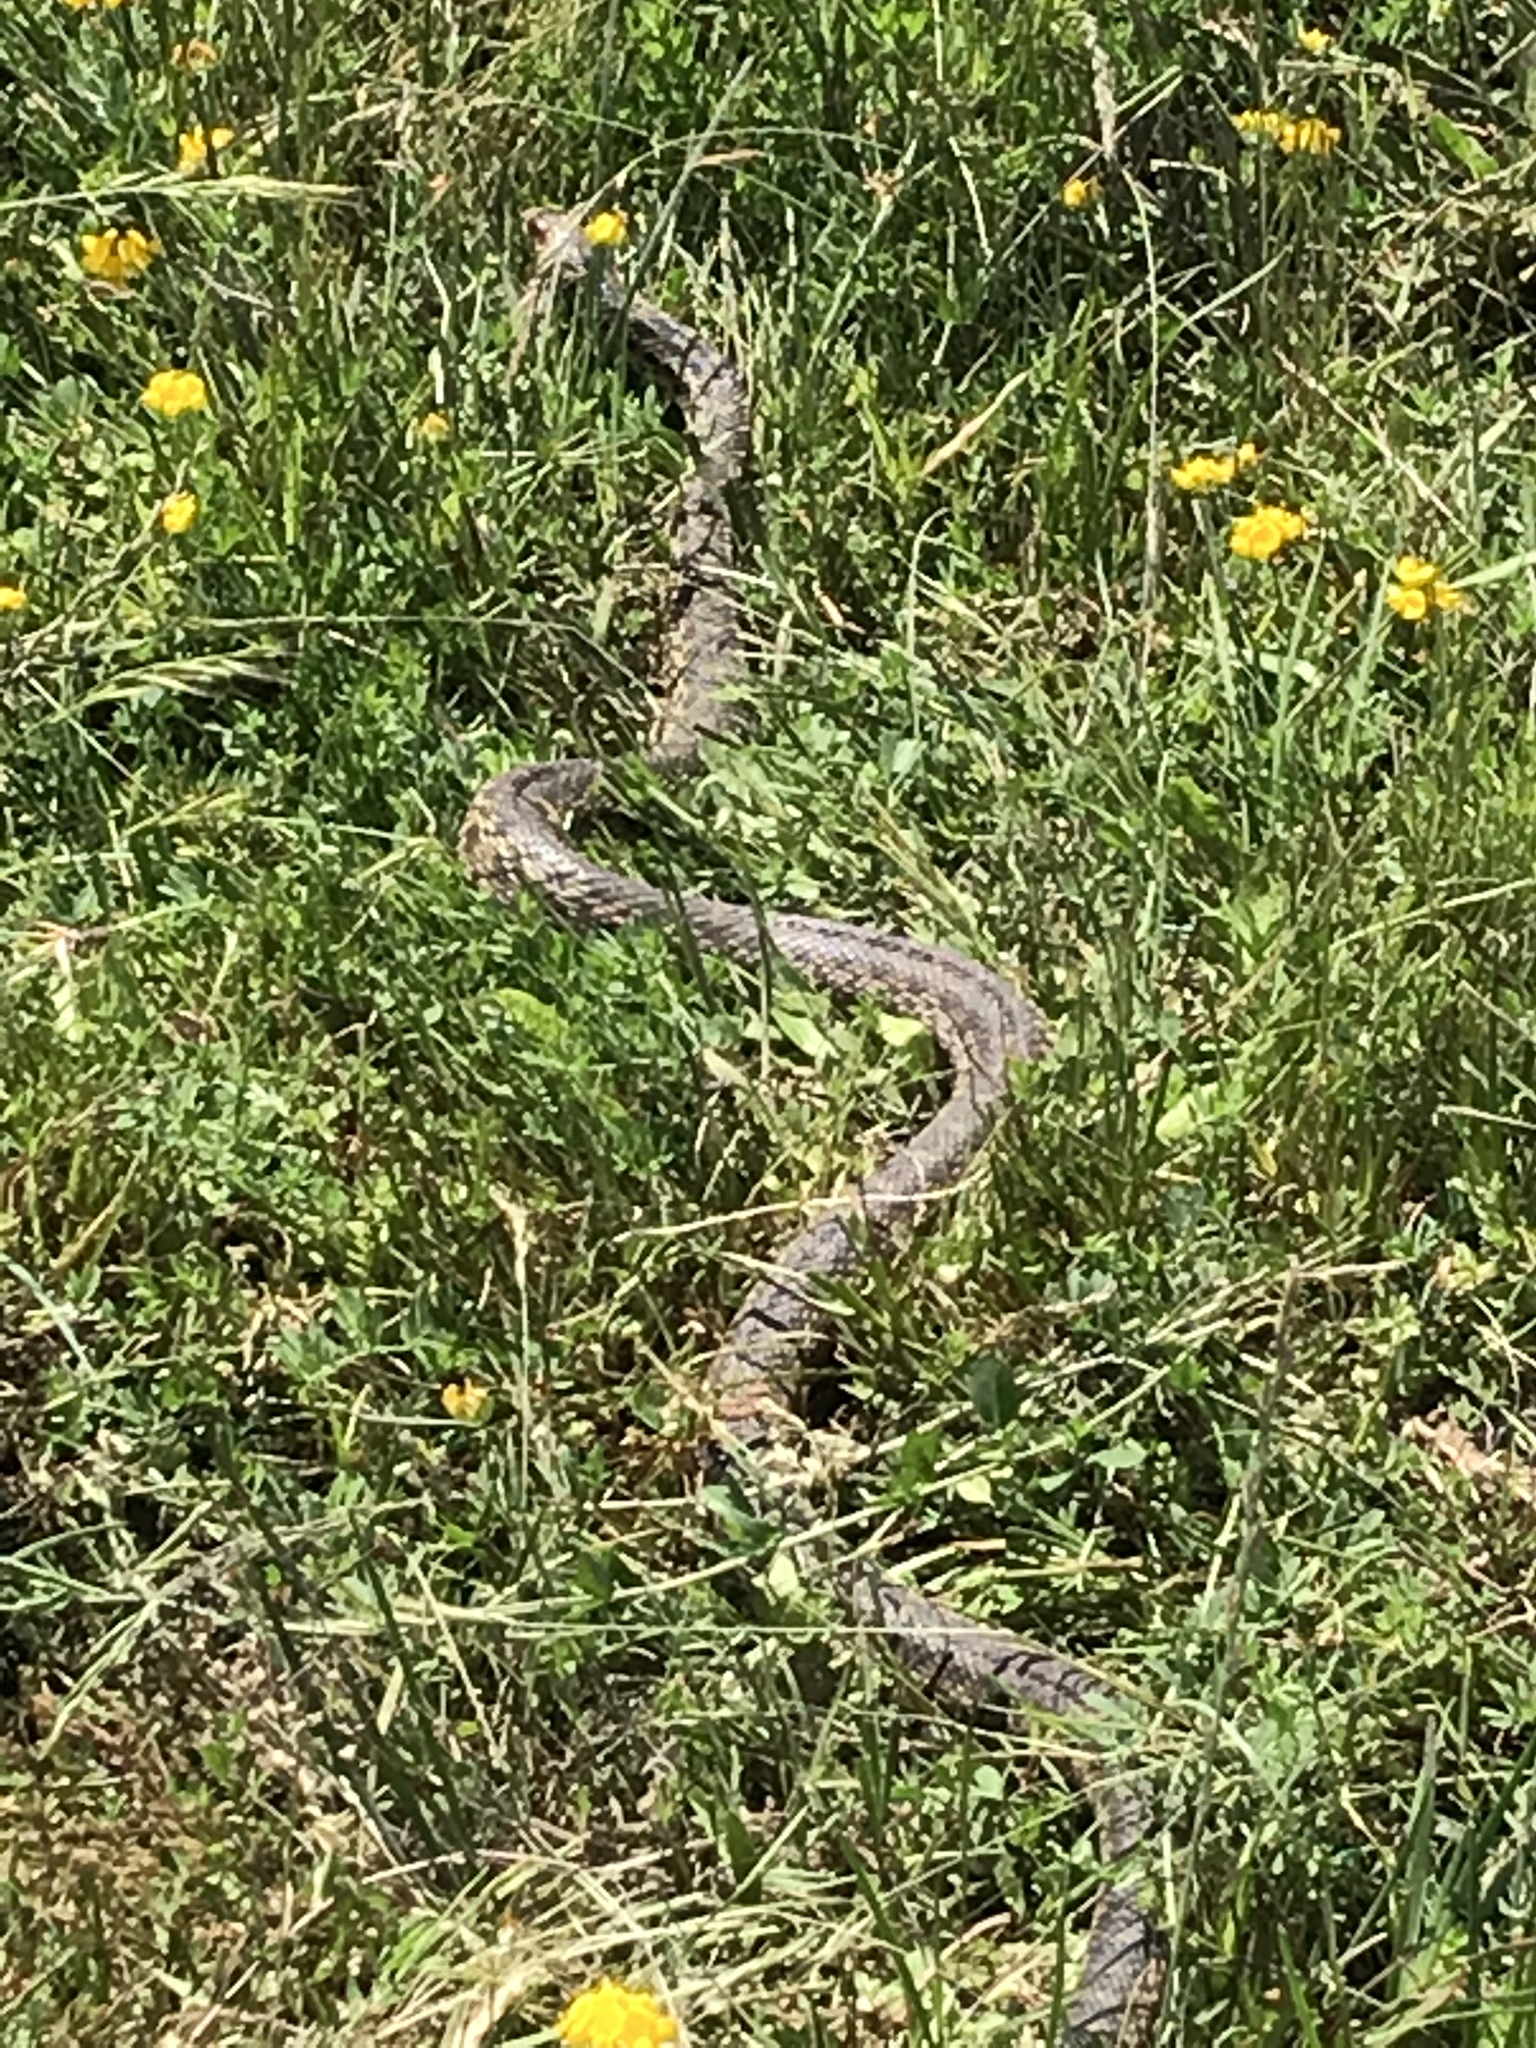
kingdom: Animalia
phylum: Chordata
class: Squamata
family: Colubridae
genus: Pituophis
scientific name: Pituophis catenifer
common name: Gopher snake
